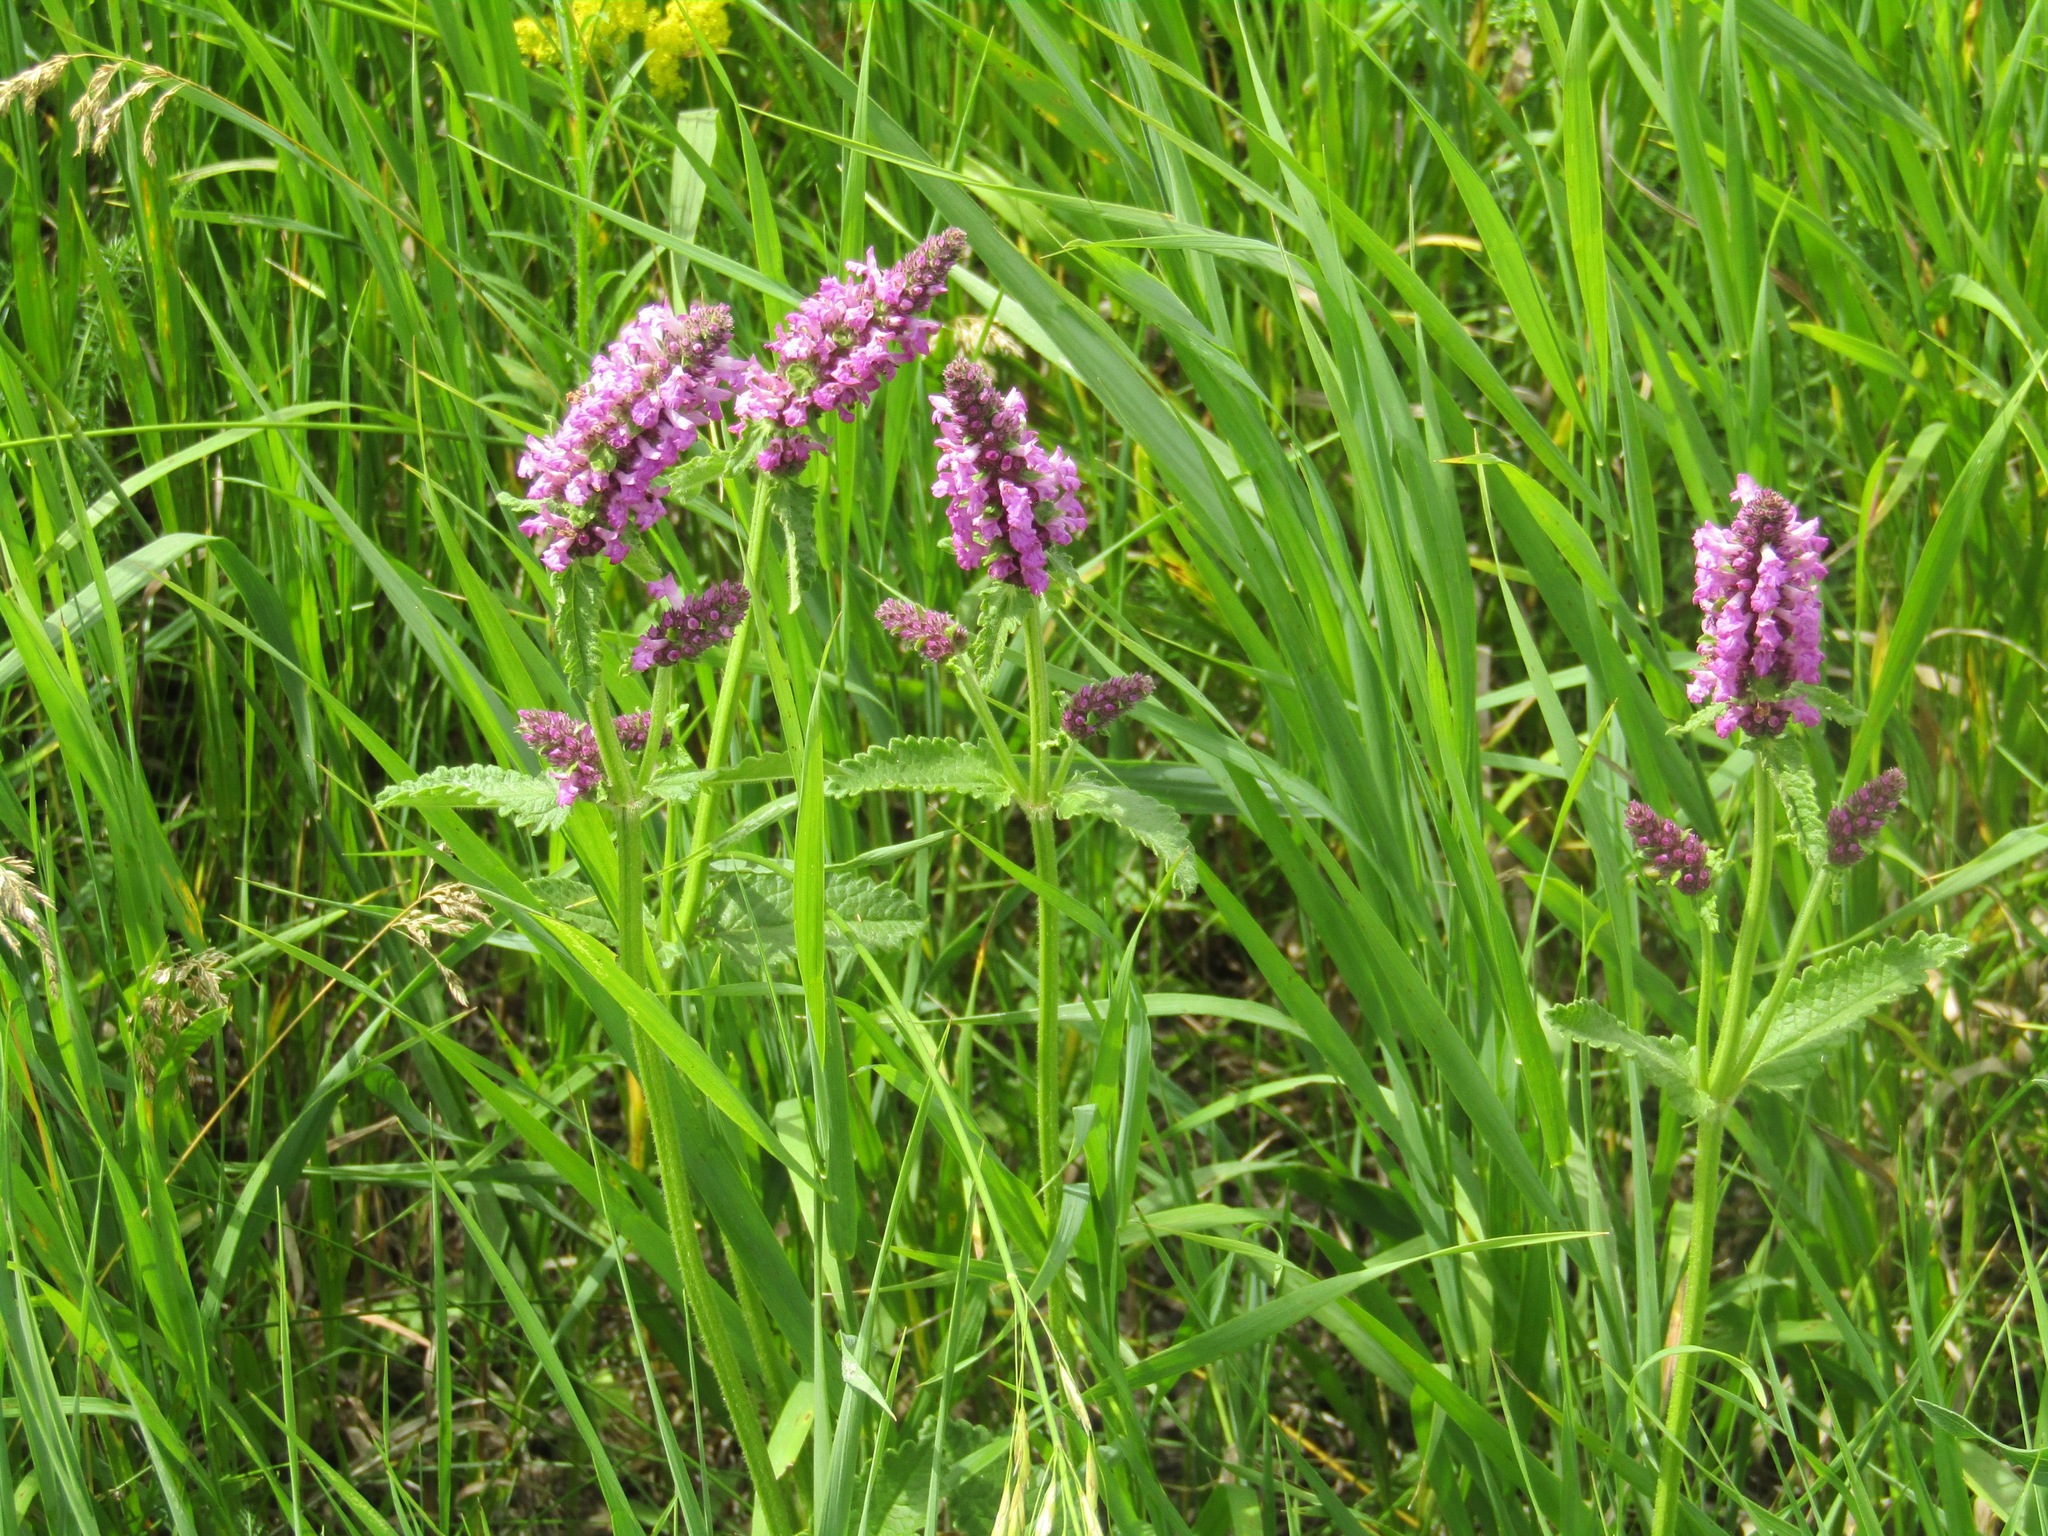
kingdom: Plantae
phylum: Tracheophyta
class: Magnoliopsida
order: Lamiales
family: Lamiaceae
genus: Betonica
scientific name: Betonica officinalis
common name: Bishop's-wort
